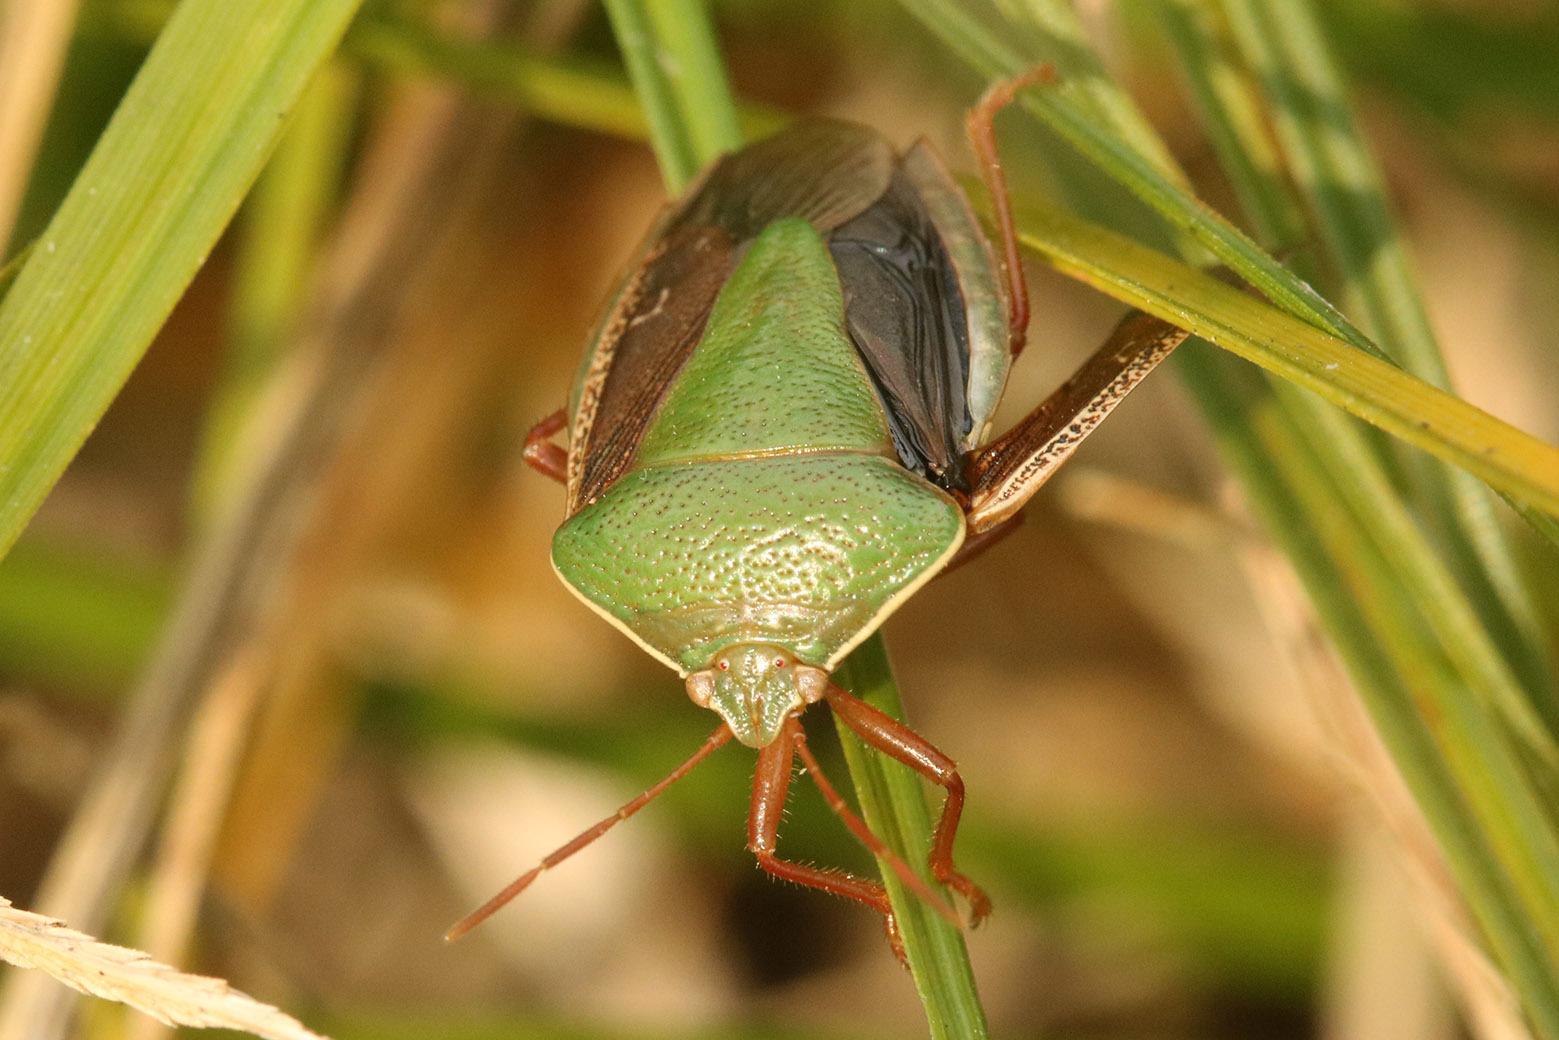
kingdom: Animalia
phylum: Arthropoda
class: Insecta
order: Hemiptera
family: Pentatomidae
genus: Edessa
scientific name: Edessa meditabunda
